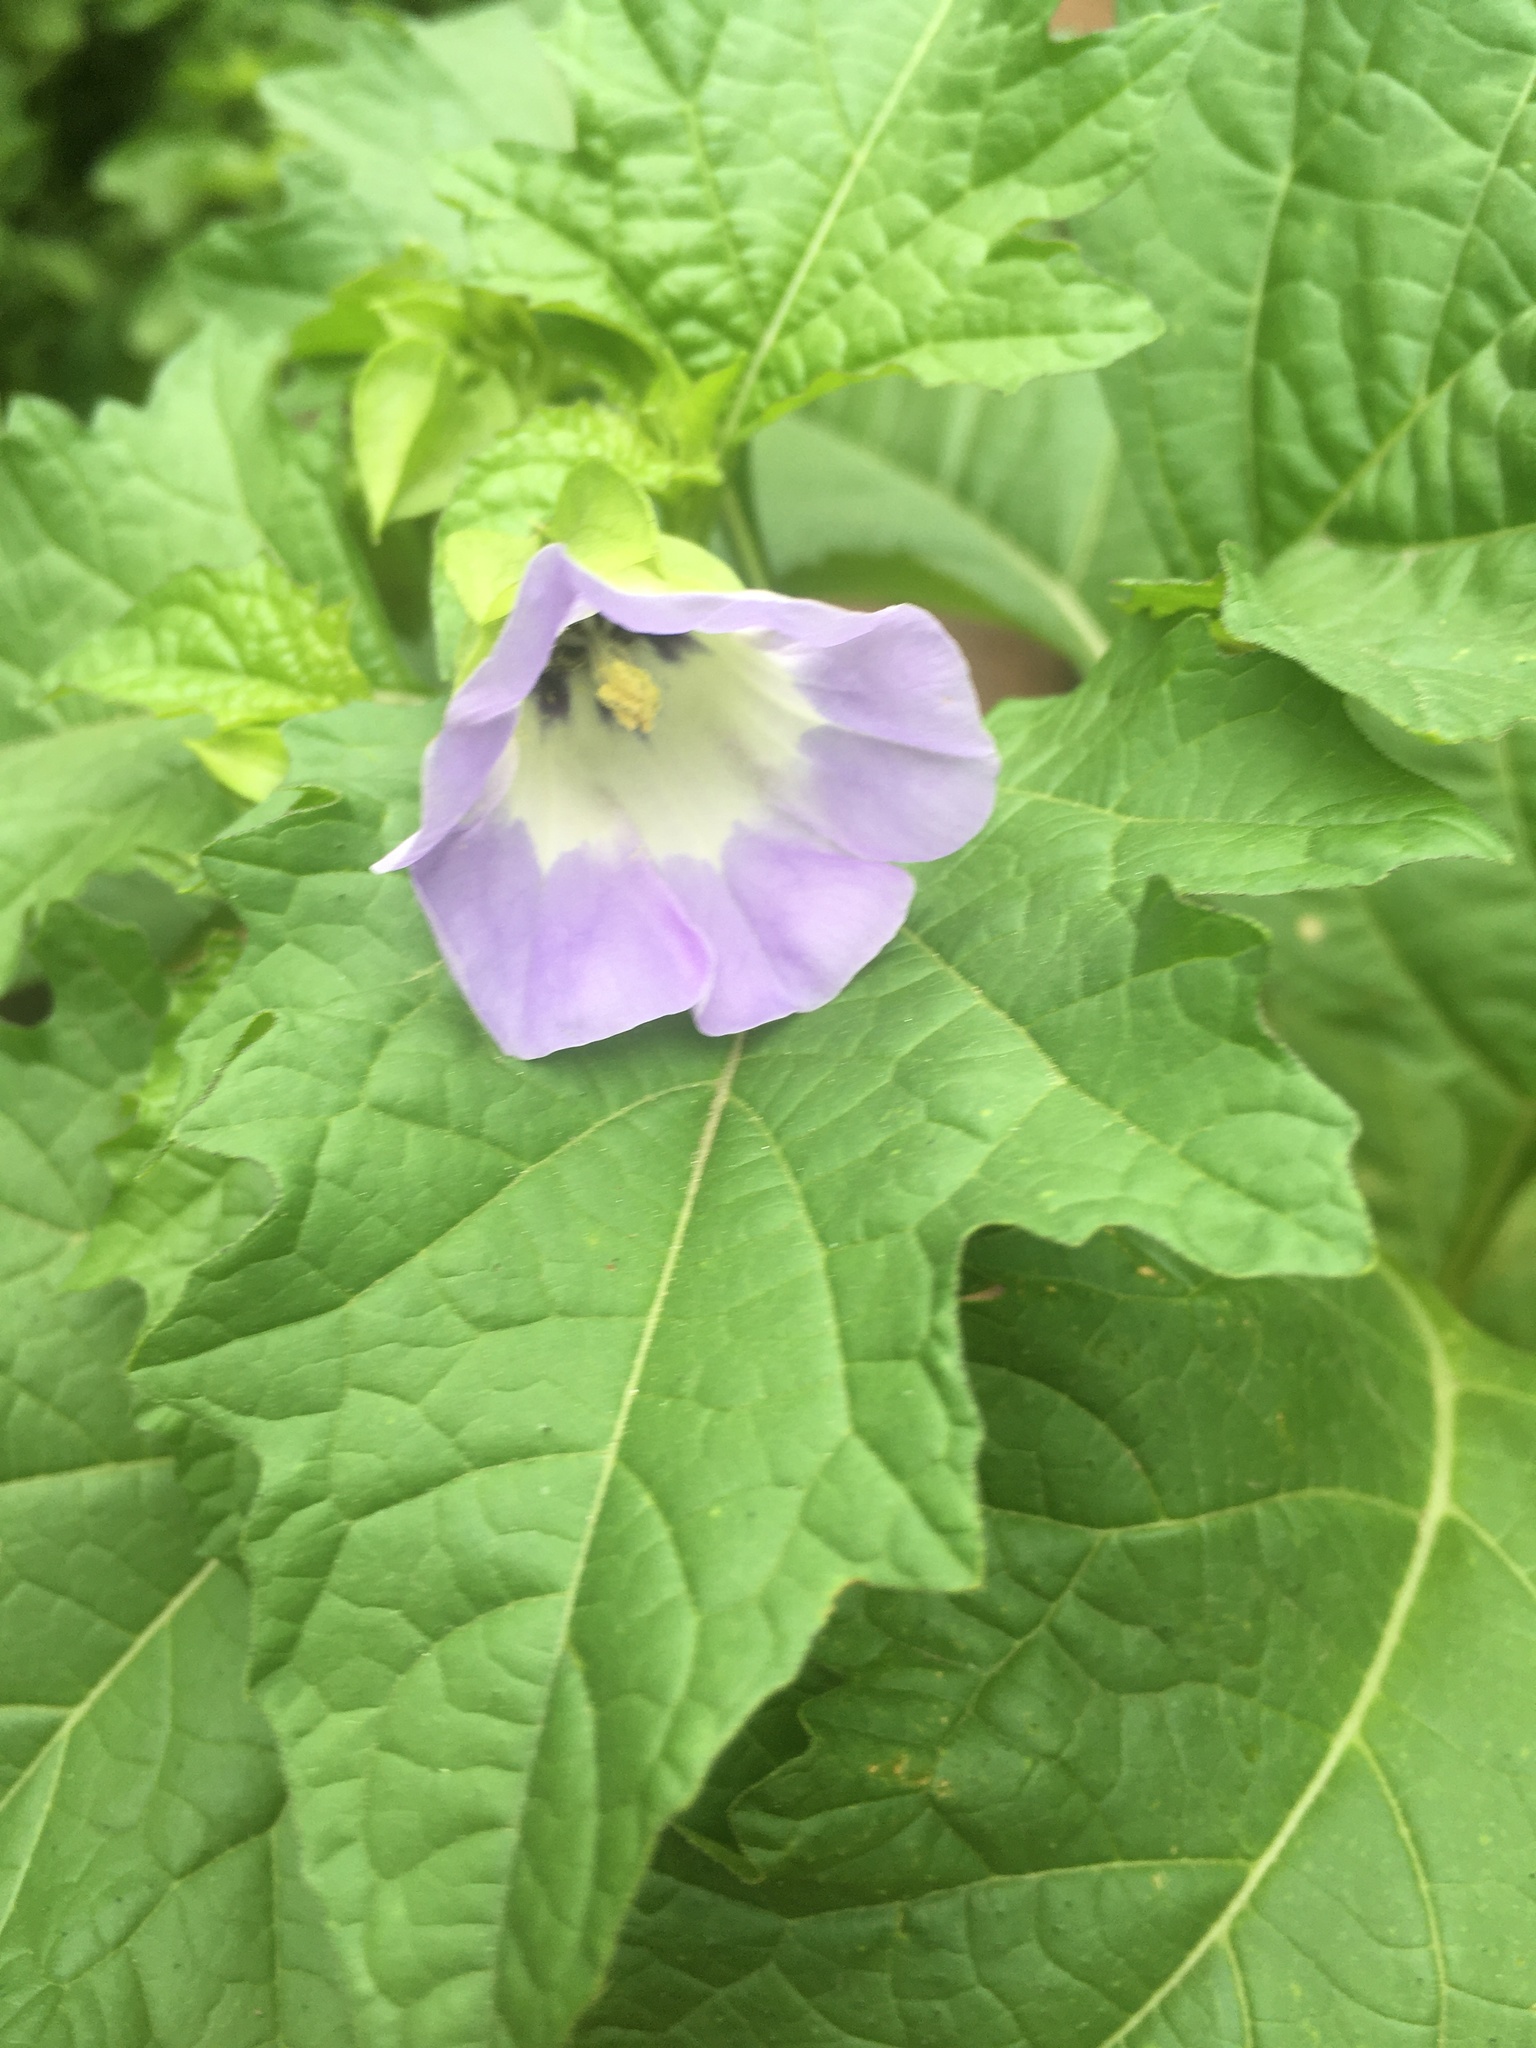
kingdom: Plantae
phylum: Tracheophyta
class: Magnoliopsida
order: Solanales
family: Solanaceae
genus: Nicandra
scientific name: Nicandra physalodes
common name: Apple-of-peru
